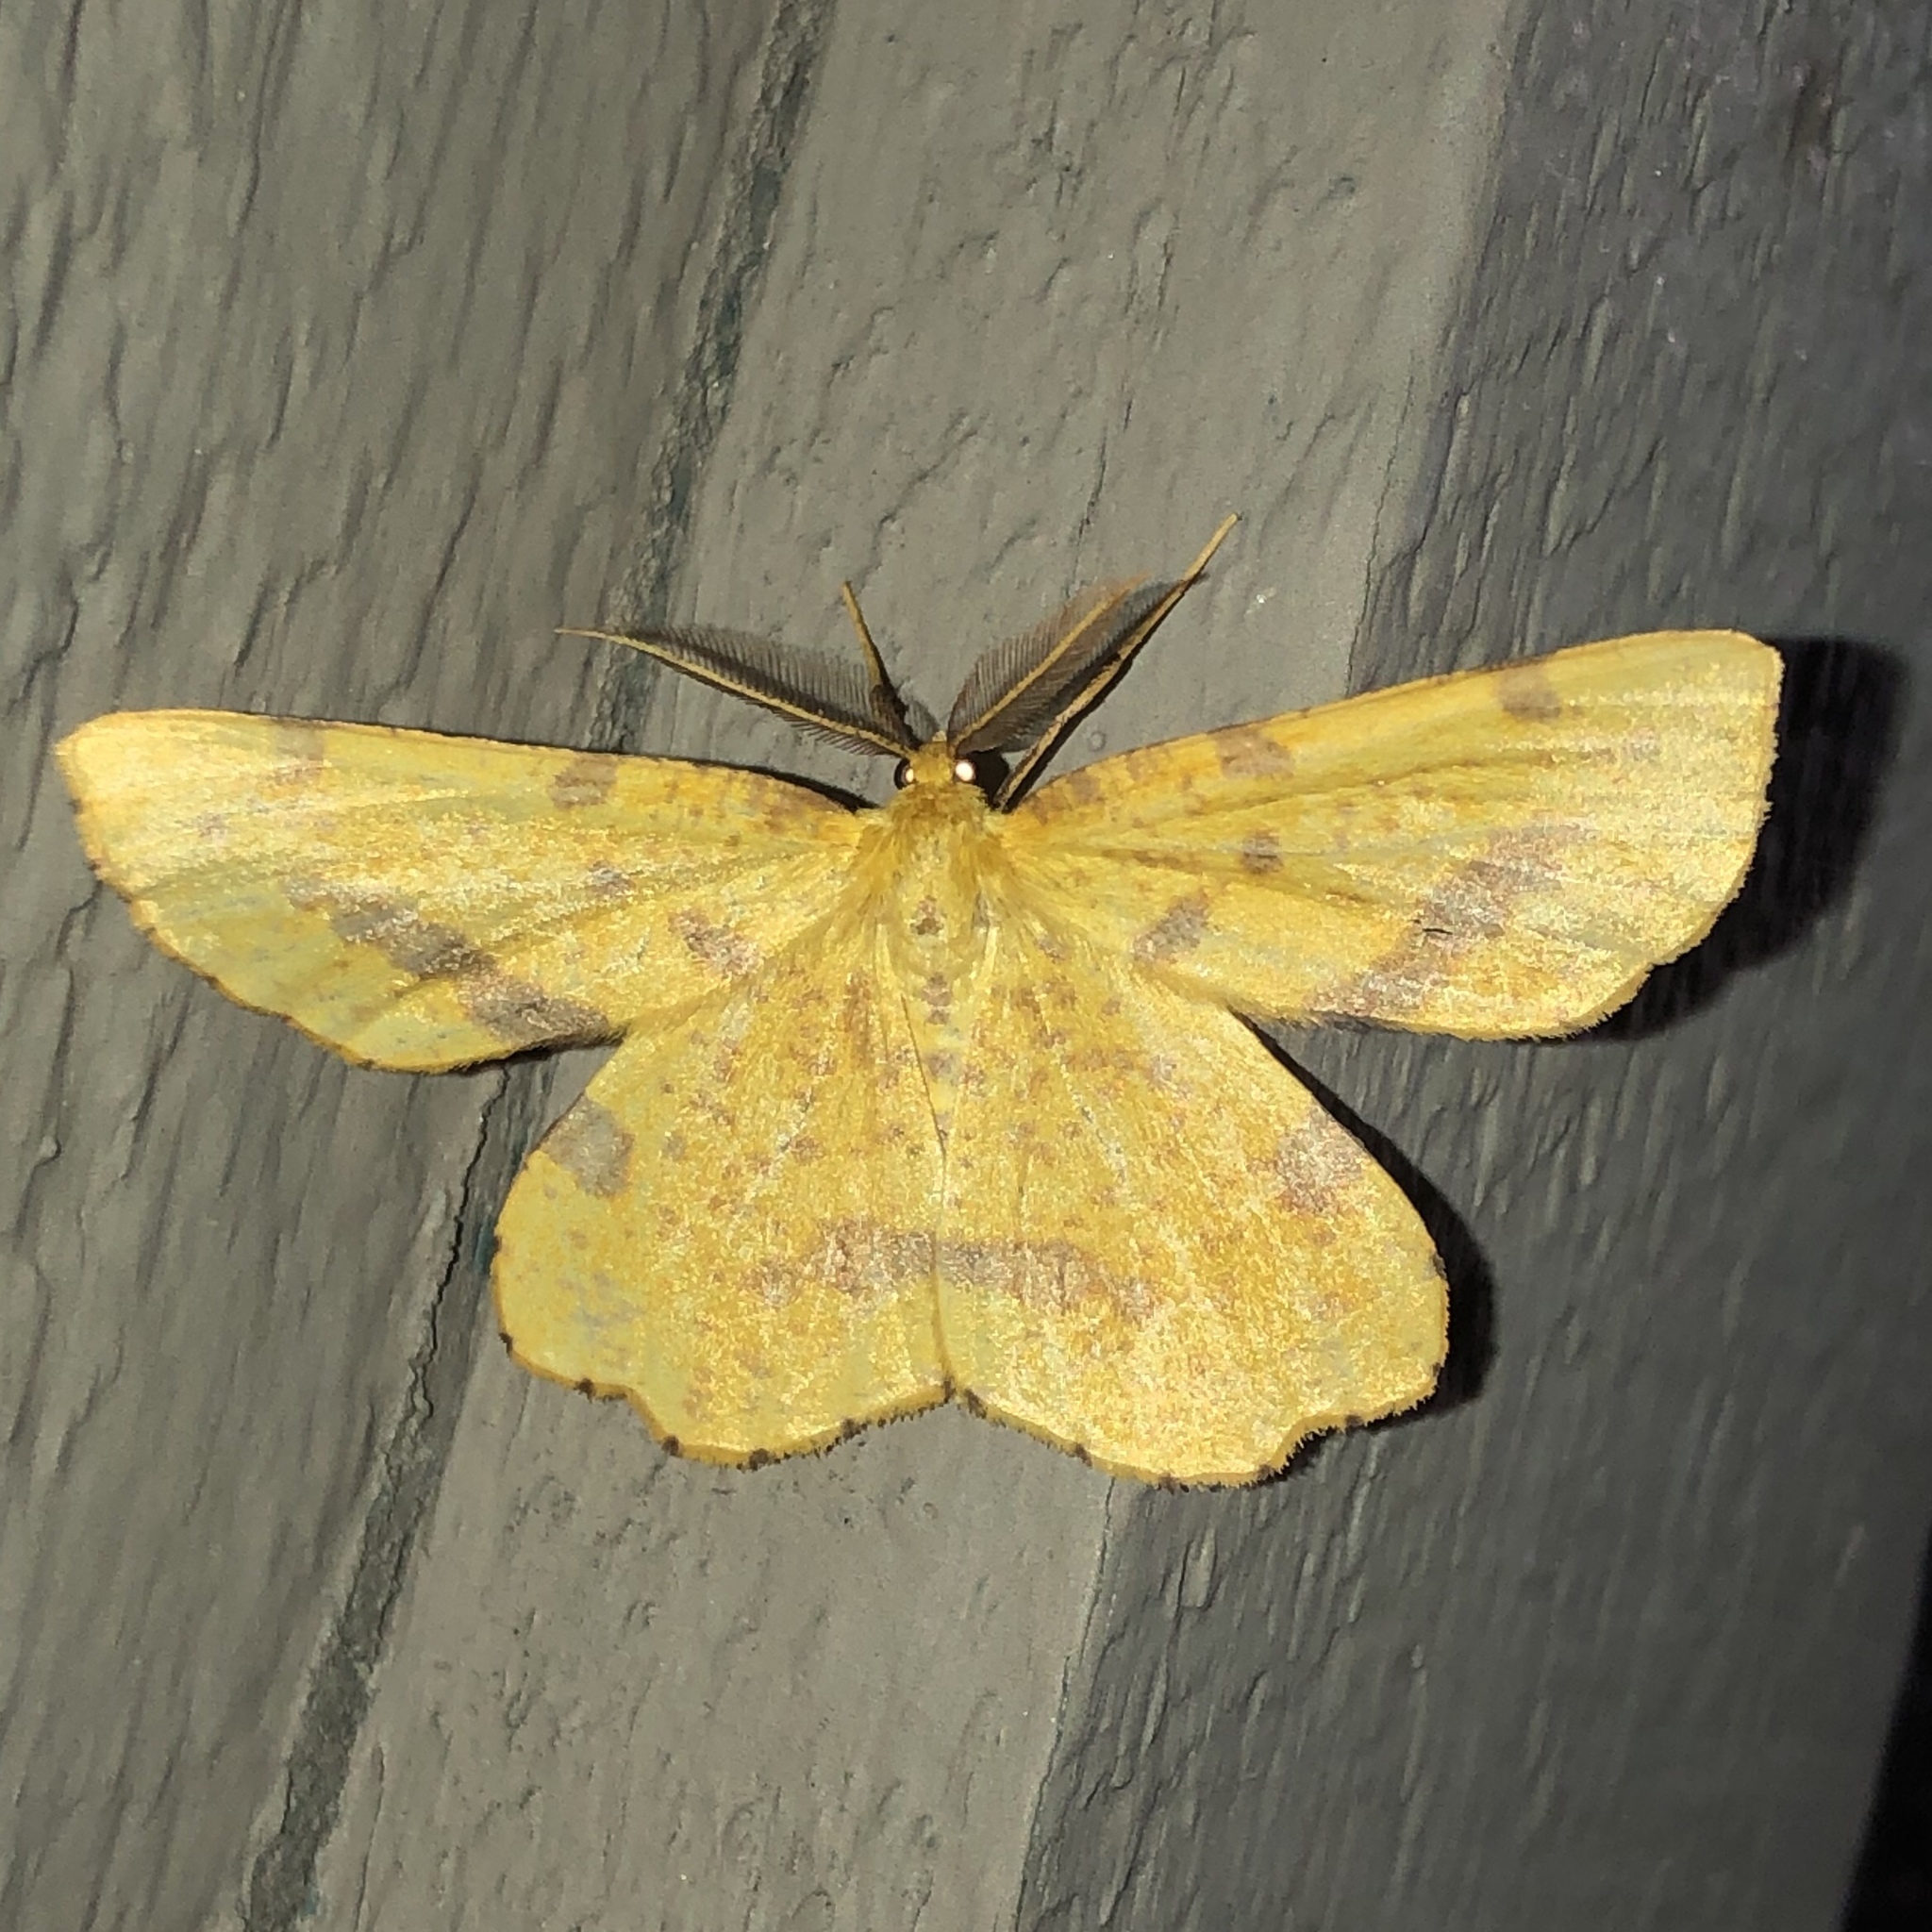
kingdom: Animalia
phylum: Arthropoda
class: Insecta
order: Lepidoptera
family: Geometridae
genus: Xanthotype
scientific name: Xanthotype
